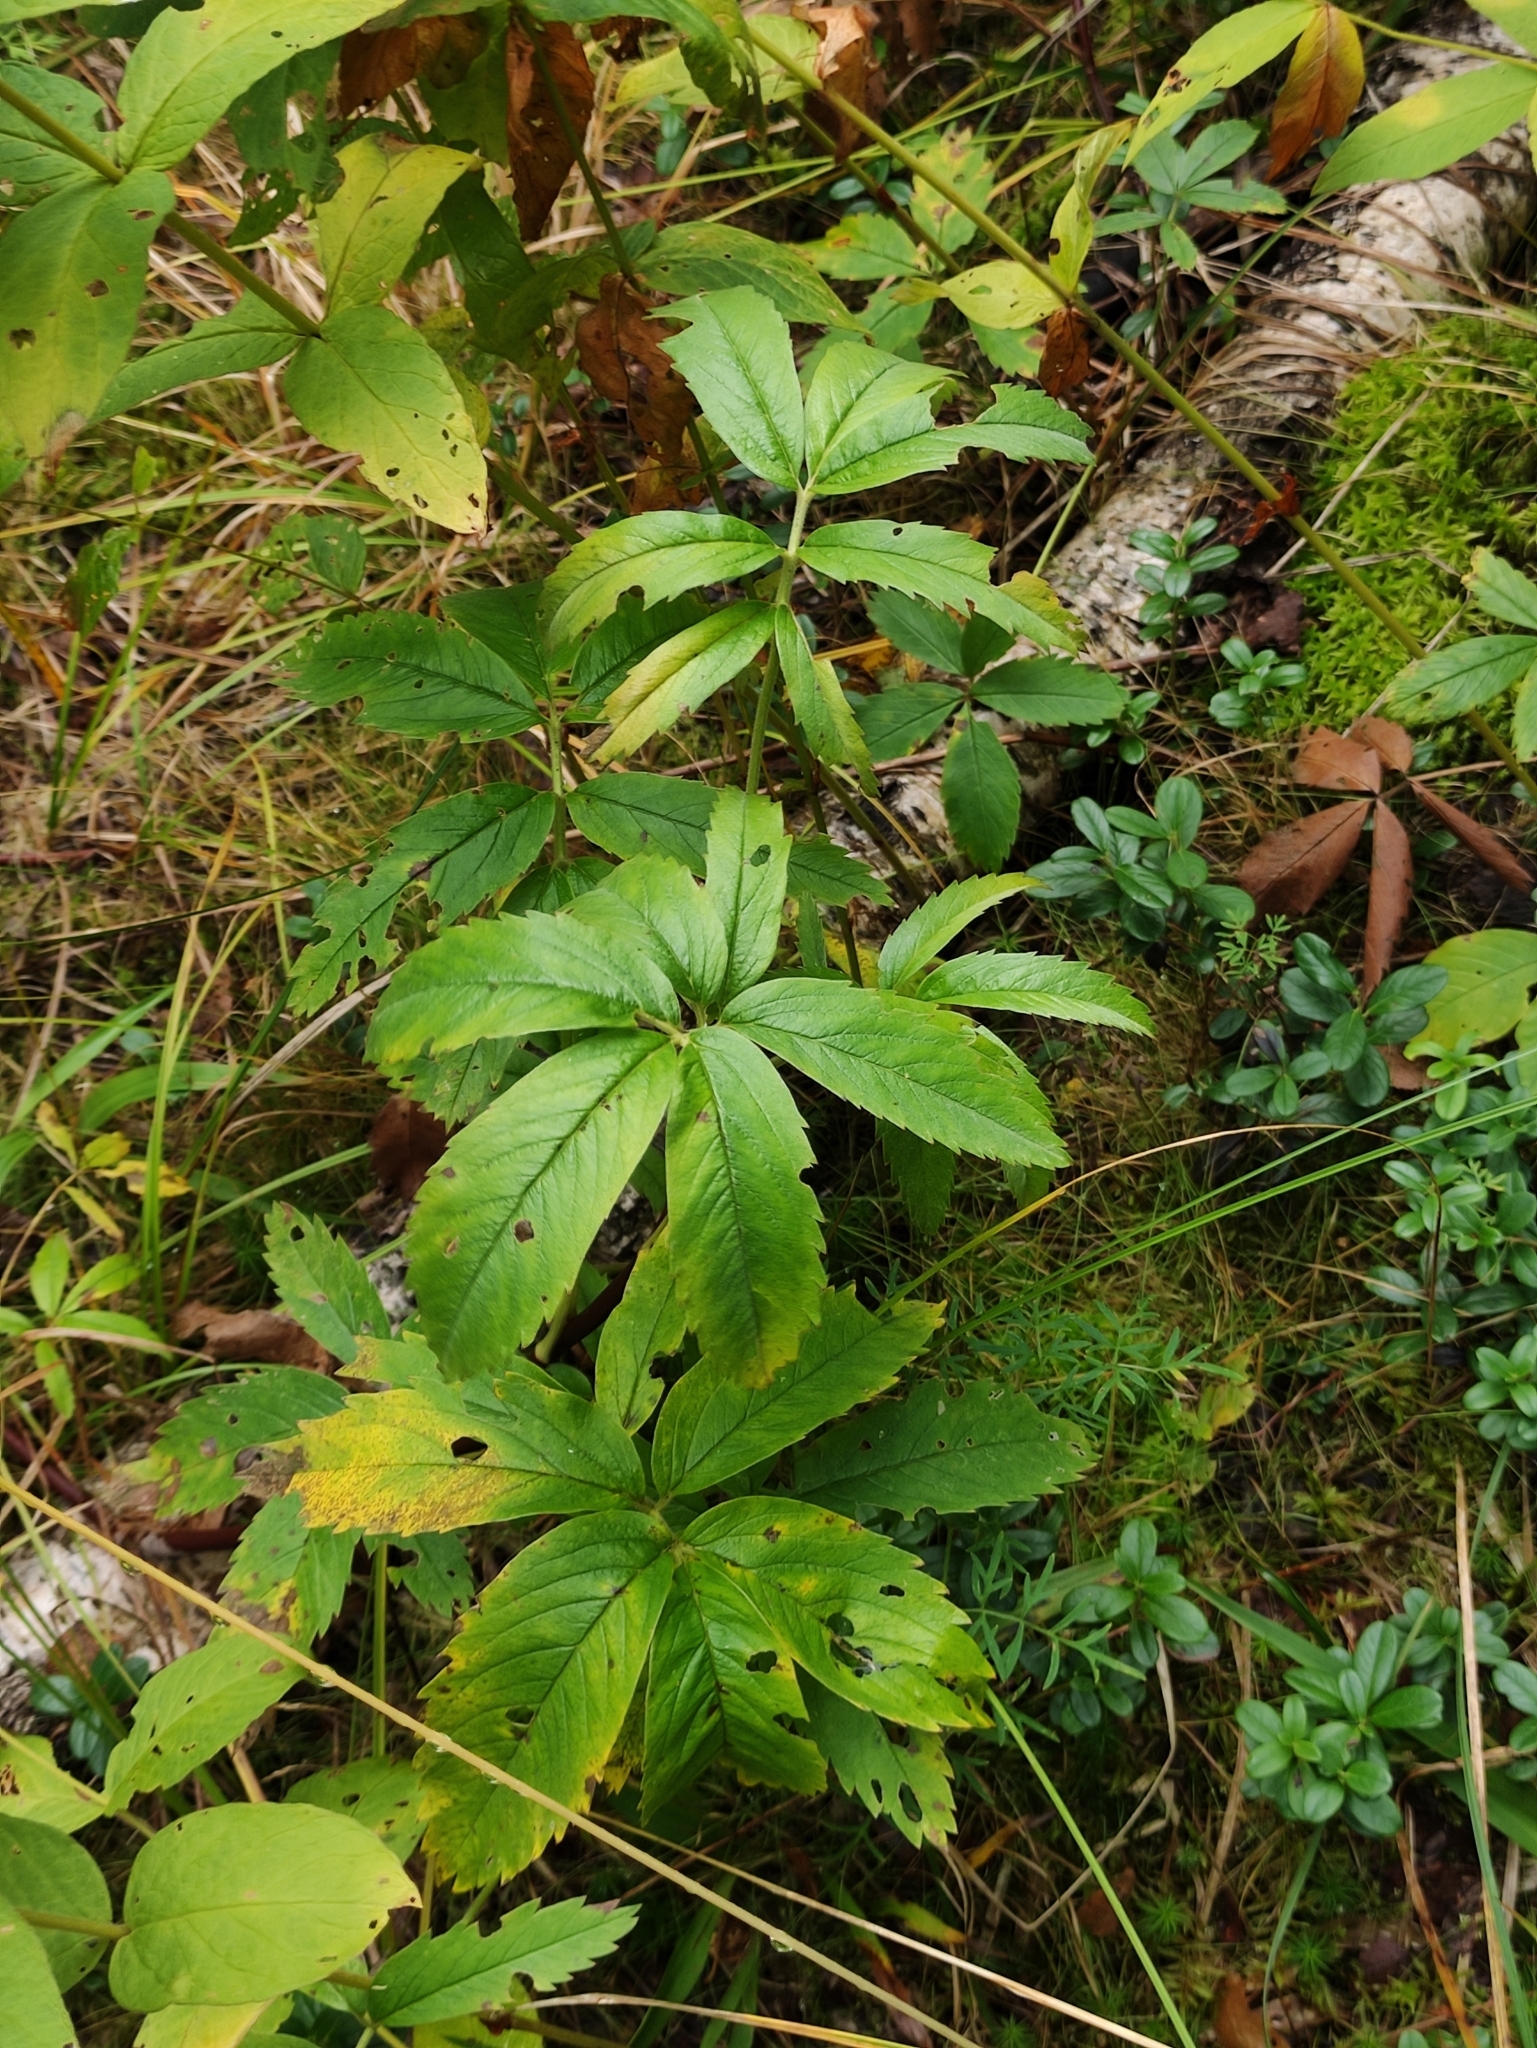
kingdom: Plantae
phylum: Tracheophyta
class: Magnoliopsida
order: Rosales
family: Rosaceae
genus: Comarum
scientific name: Comarum palustre
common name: Marsh cinquefoil
